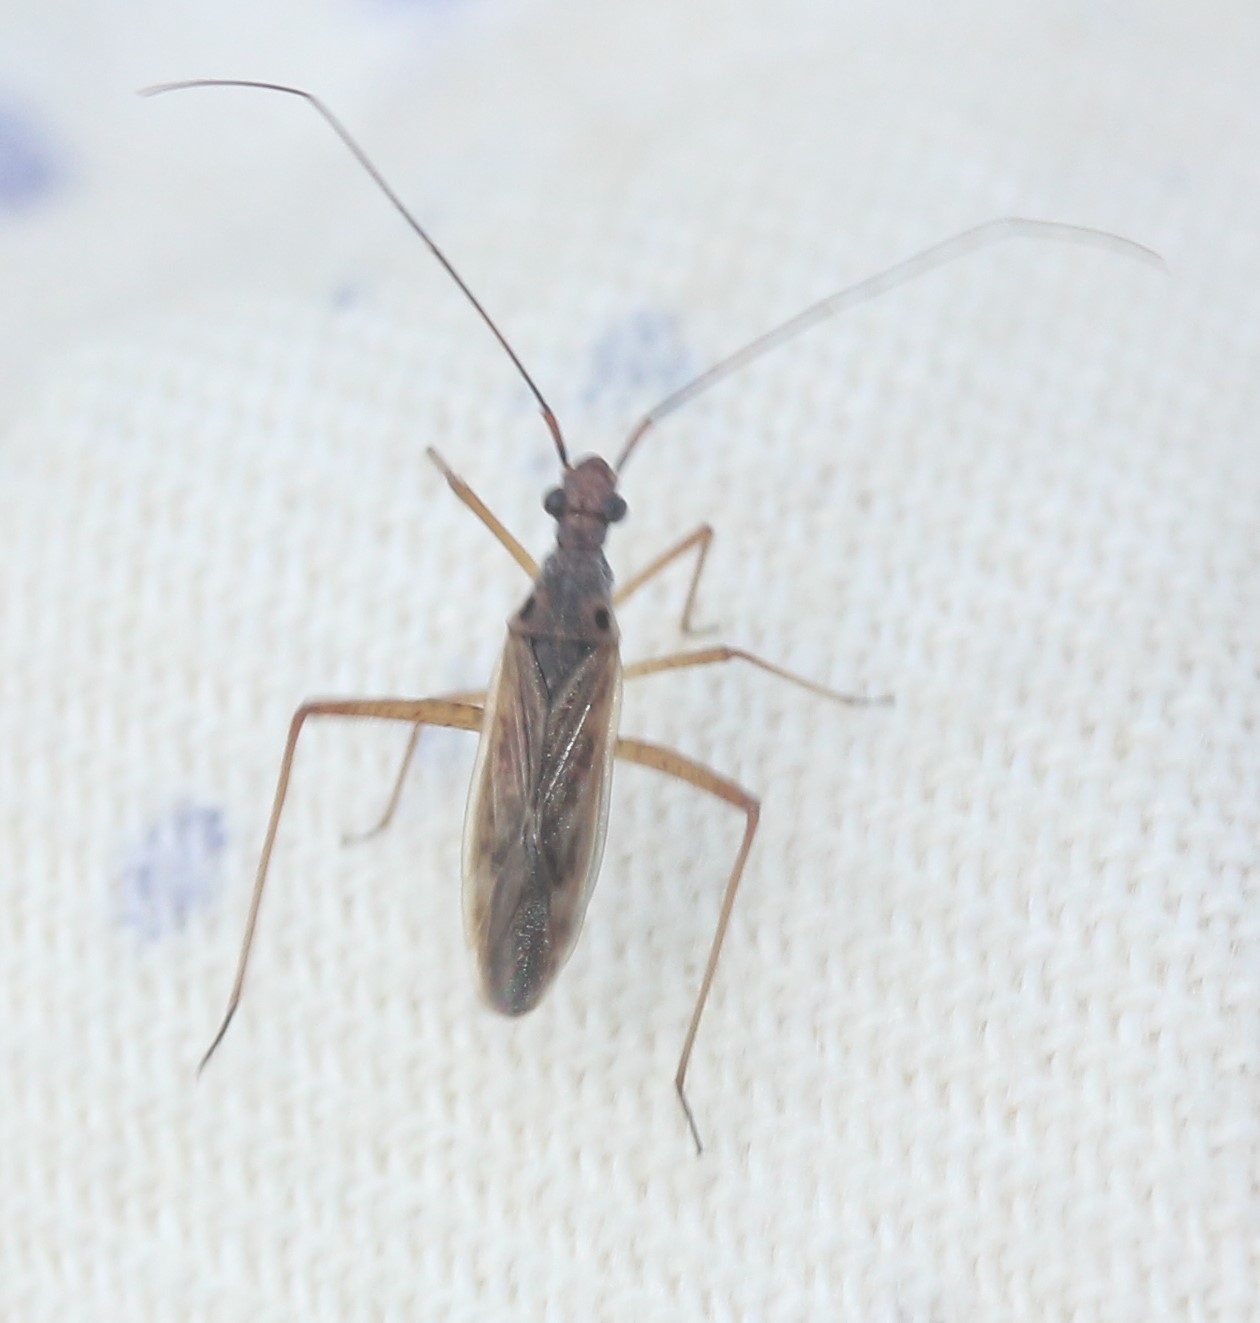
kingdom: Animalia
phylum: Arthropoda
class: Insecta
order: Hemiptera
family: Miridae
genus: Collaria
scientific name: Collaria oculata
